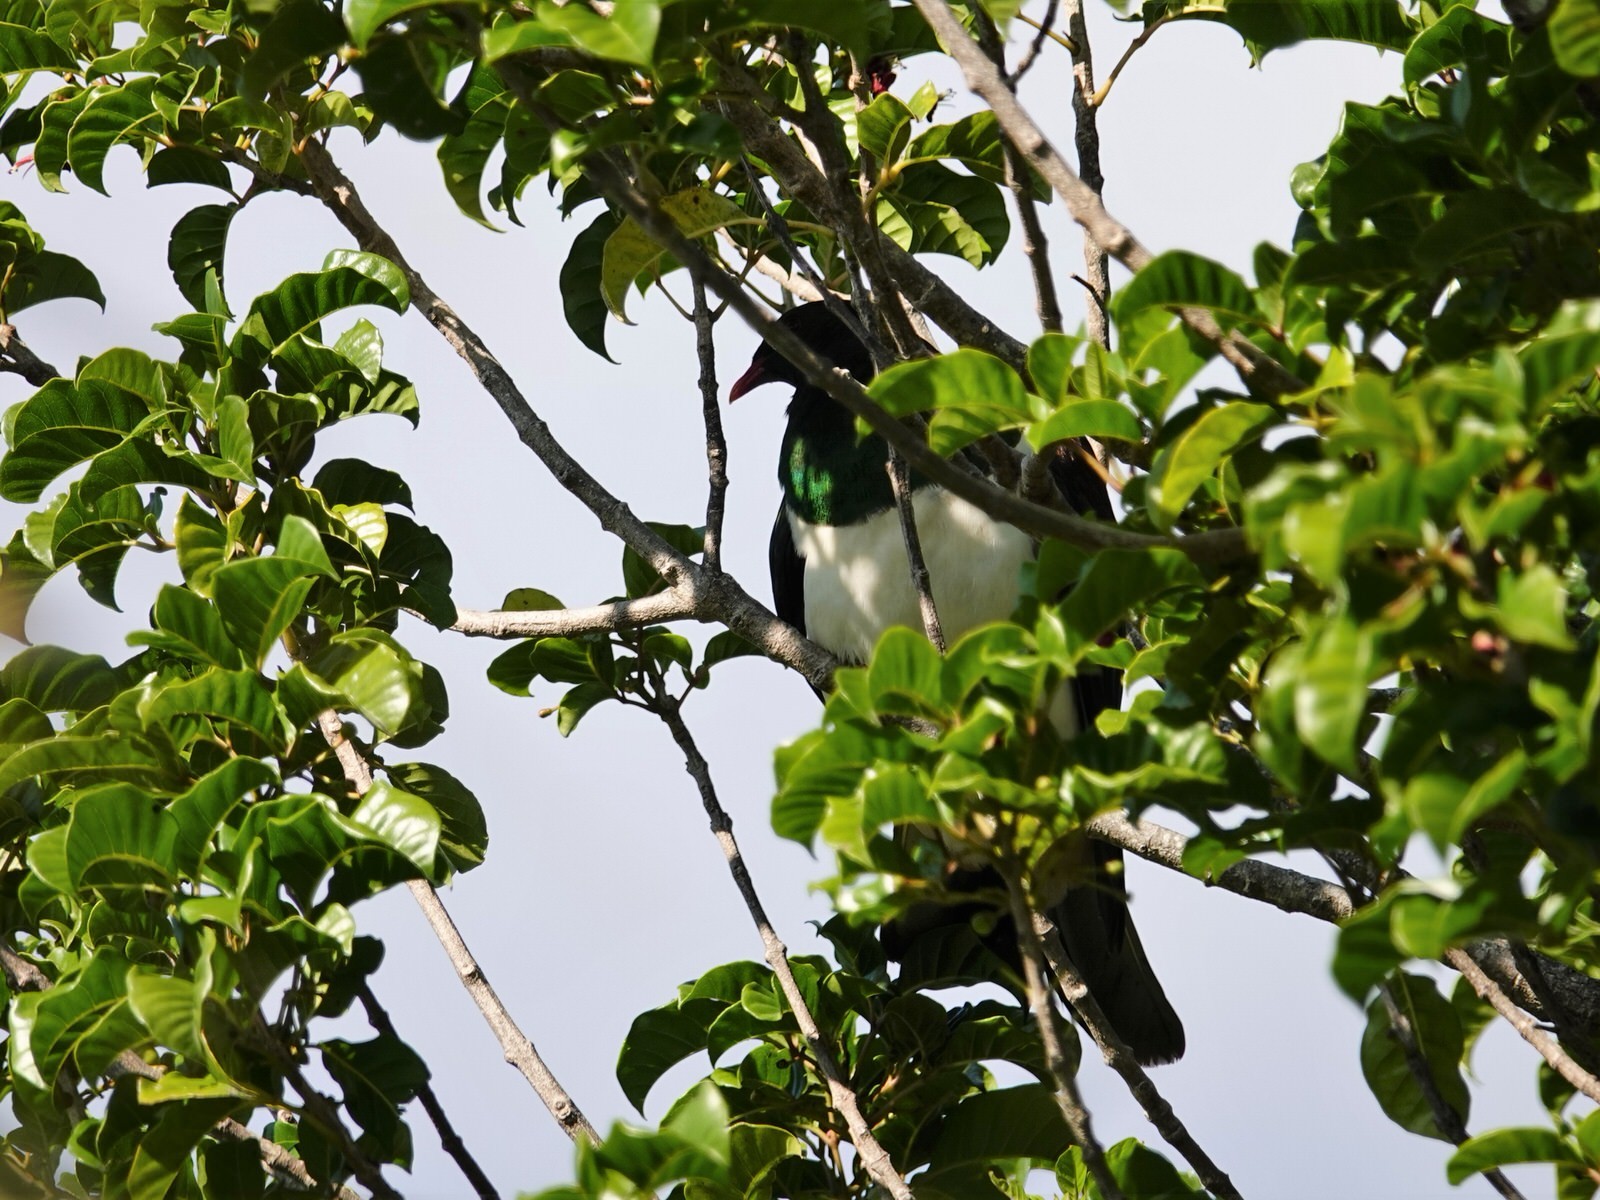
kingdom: Animalia
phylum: Chordata
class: Aves
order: Columbiformes
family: Columbidae
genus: Hemiphaga
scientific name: Hemiphaga novaeseelandiae
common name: New zealand pigeon
